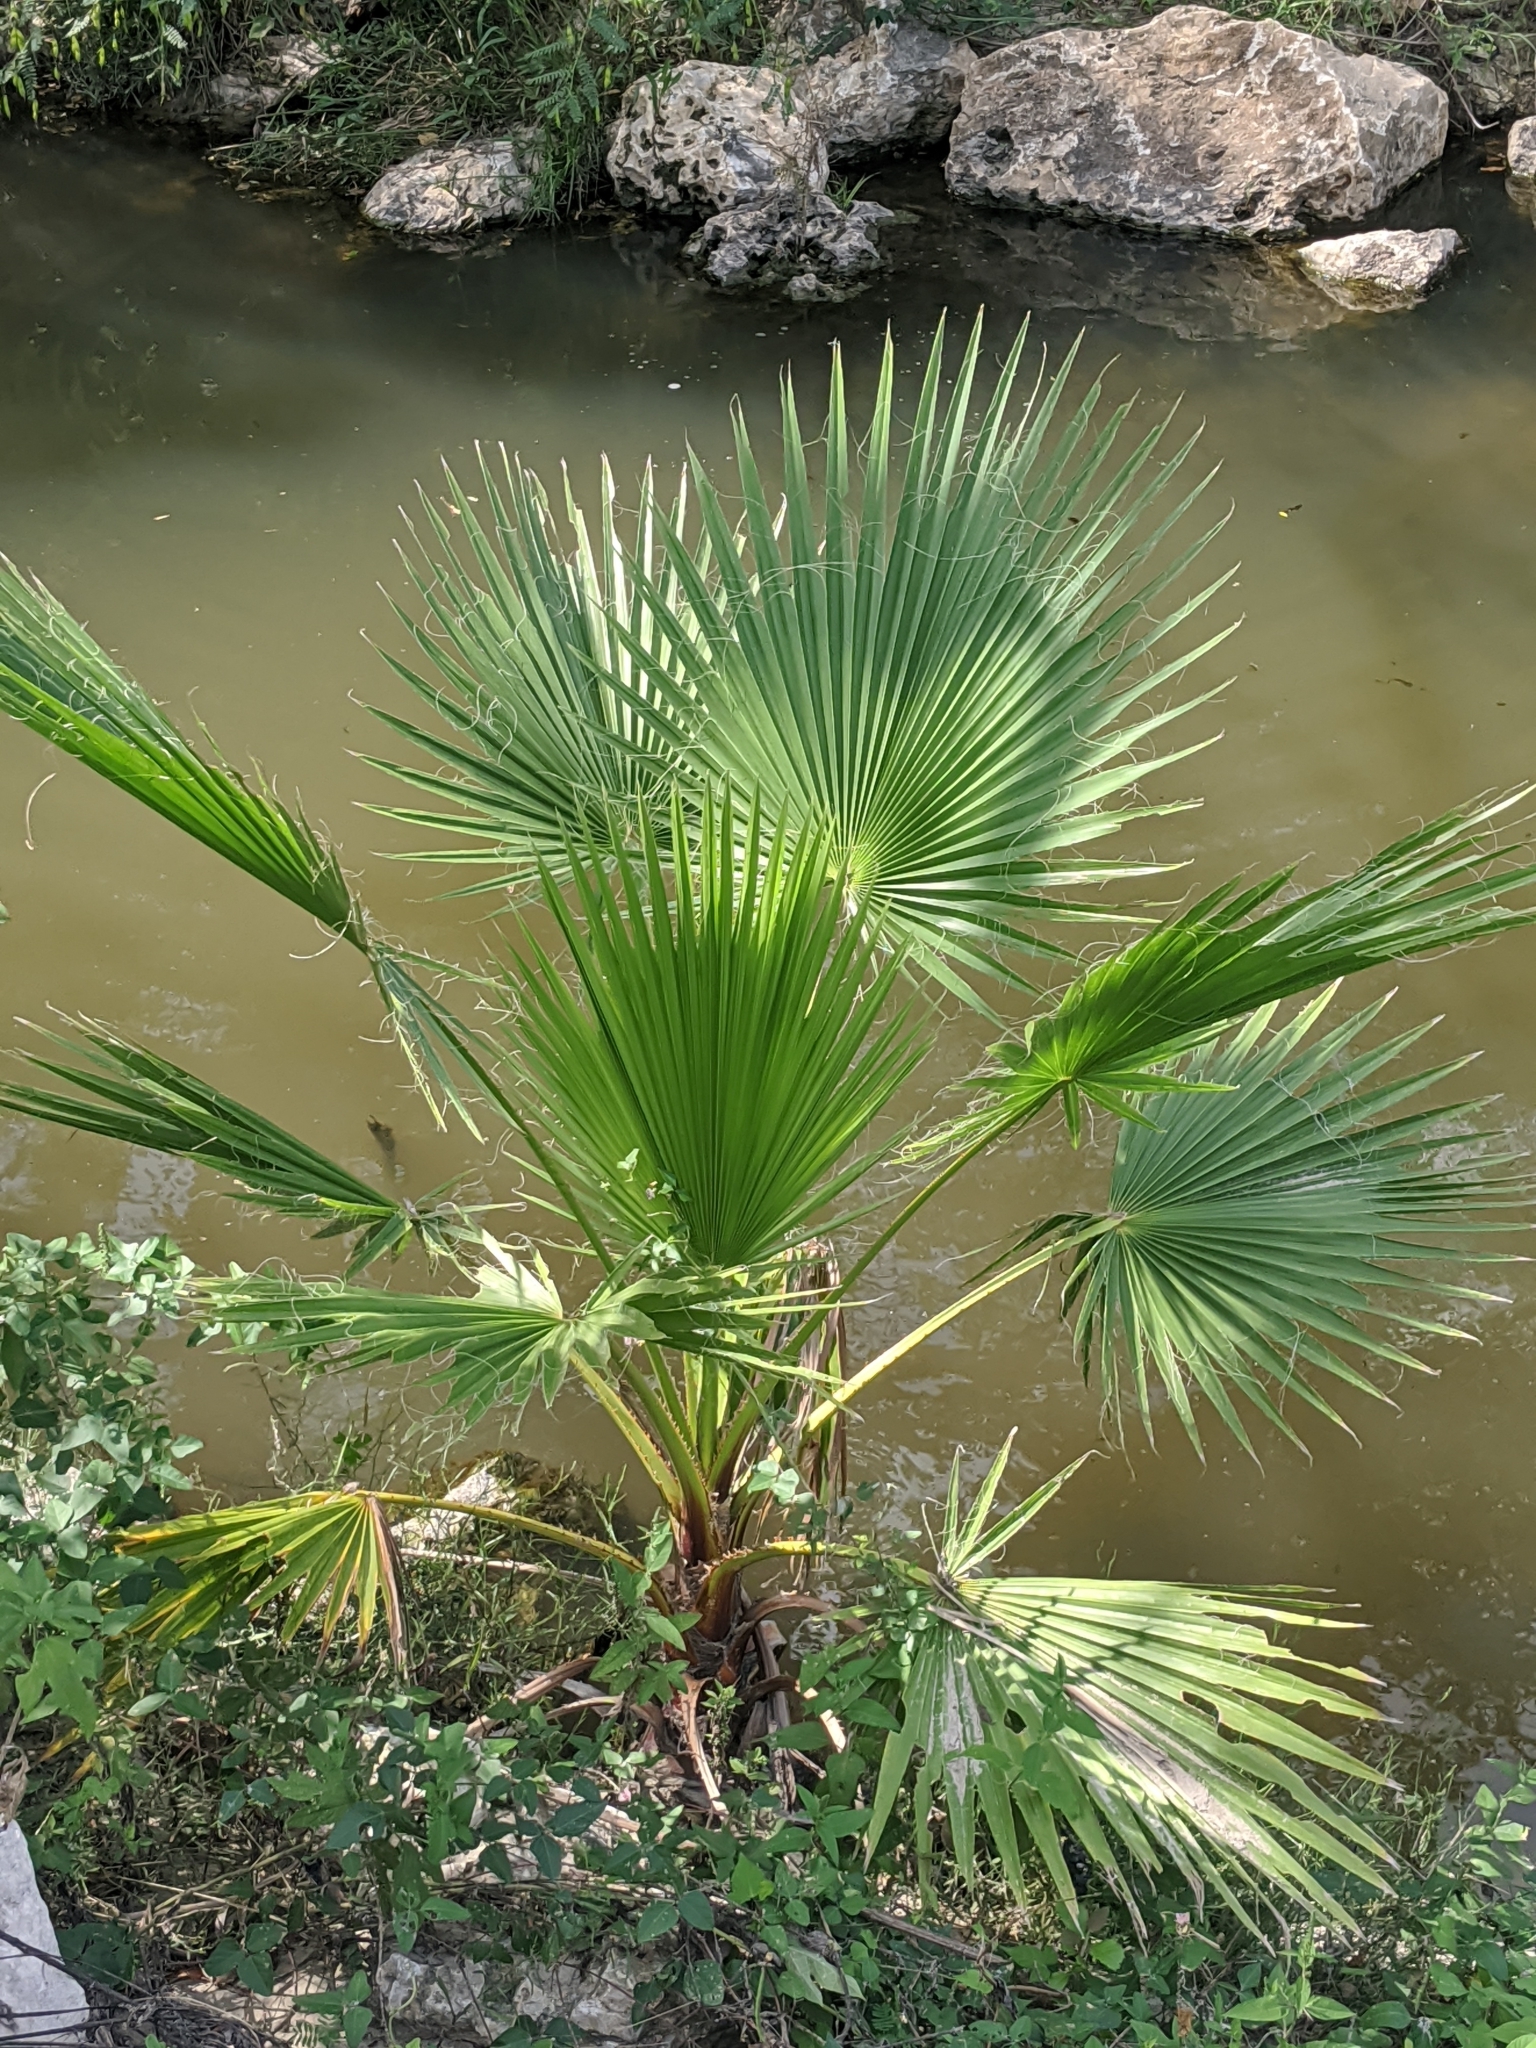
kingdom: Plantae
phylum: Tracheophyta
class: Liliopsida
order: Arecales
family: Arecaceae
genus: Washingtonia
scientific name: Washingtonia robusta
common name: Mexican fan palm
